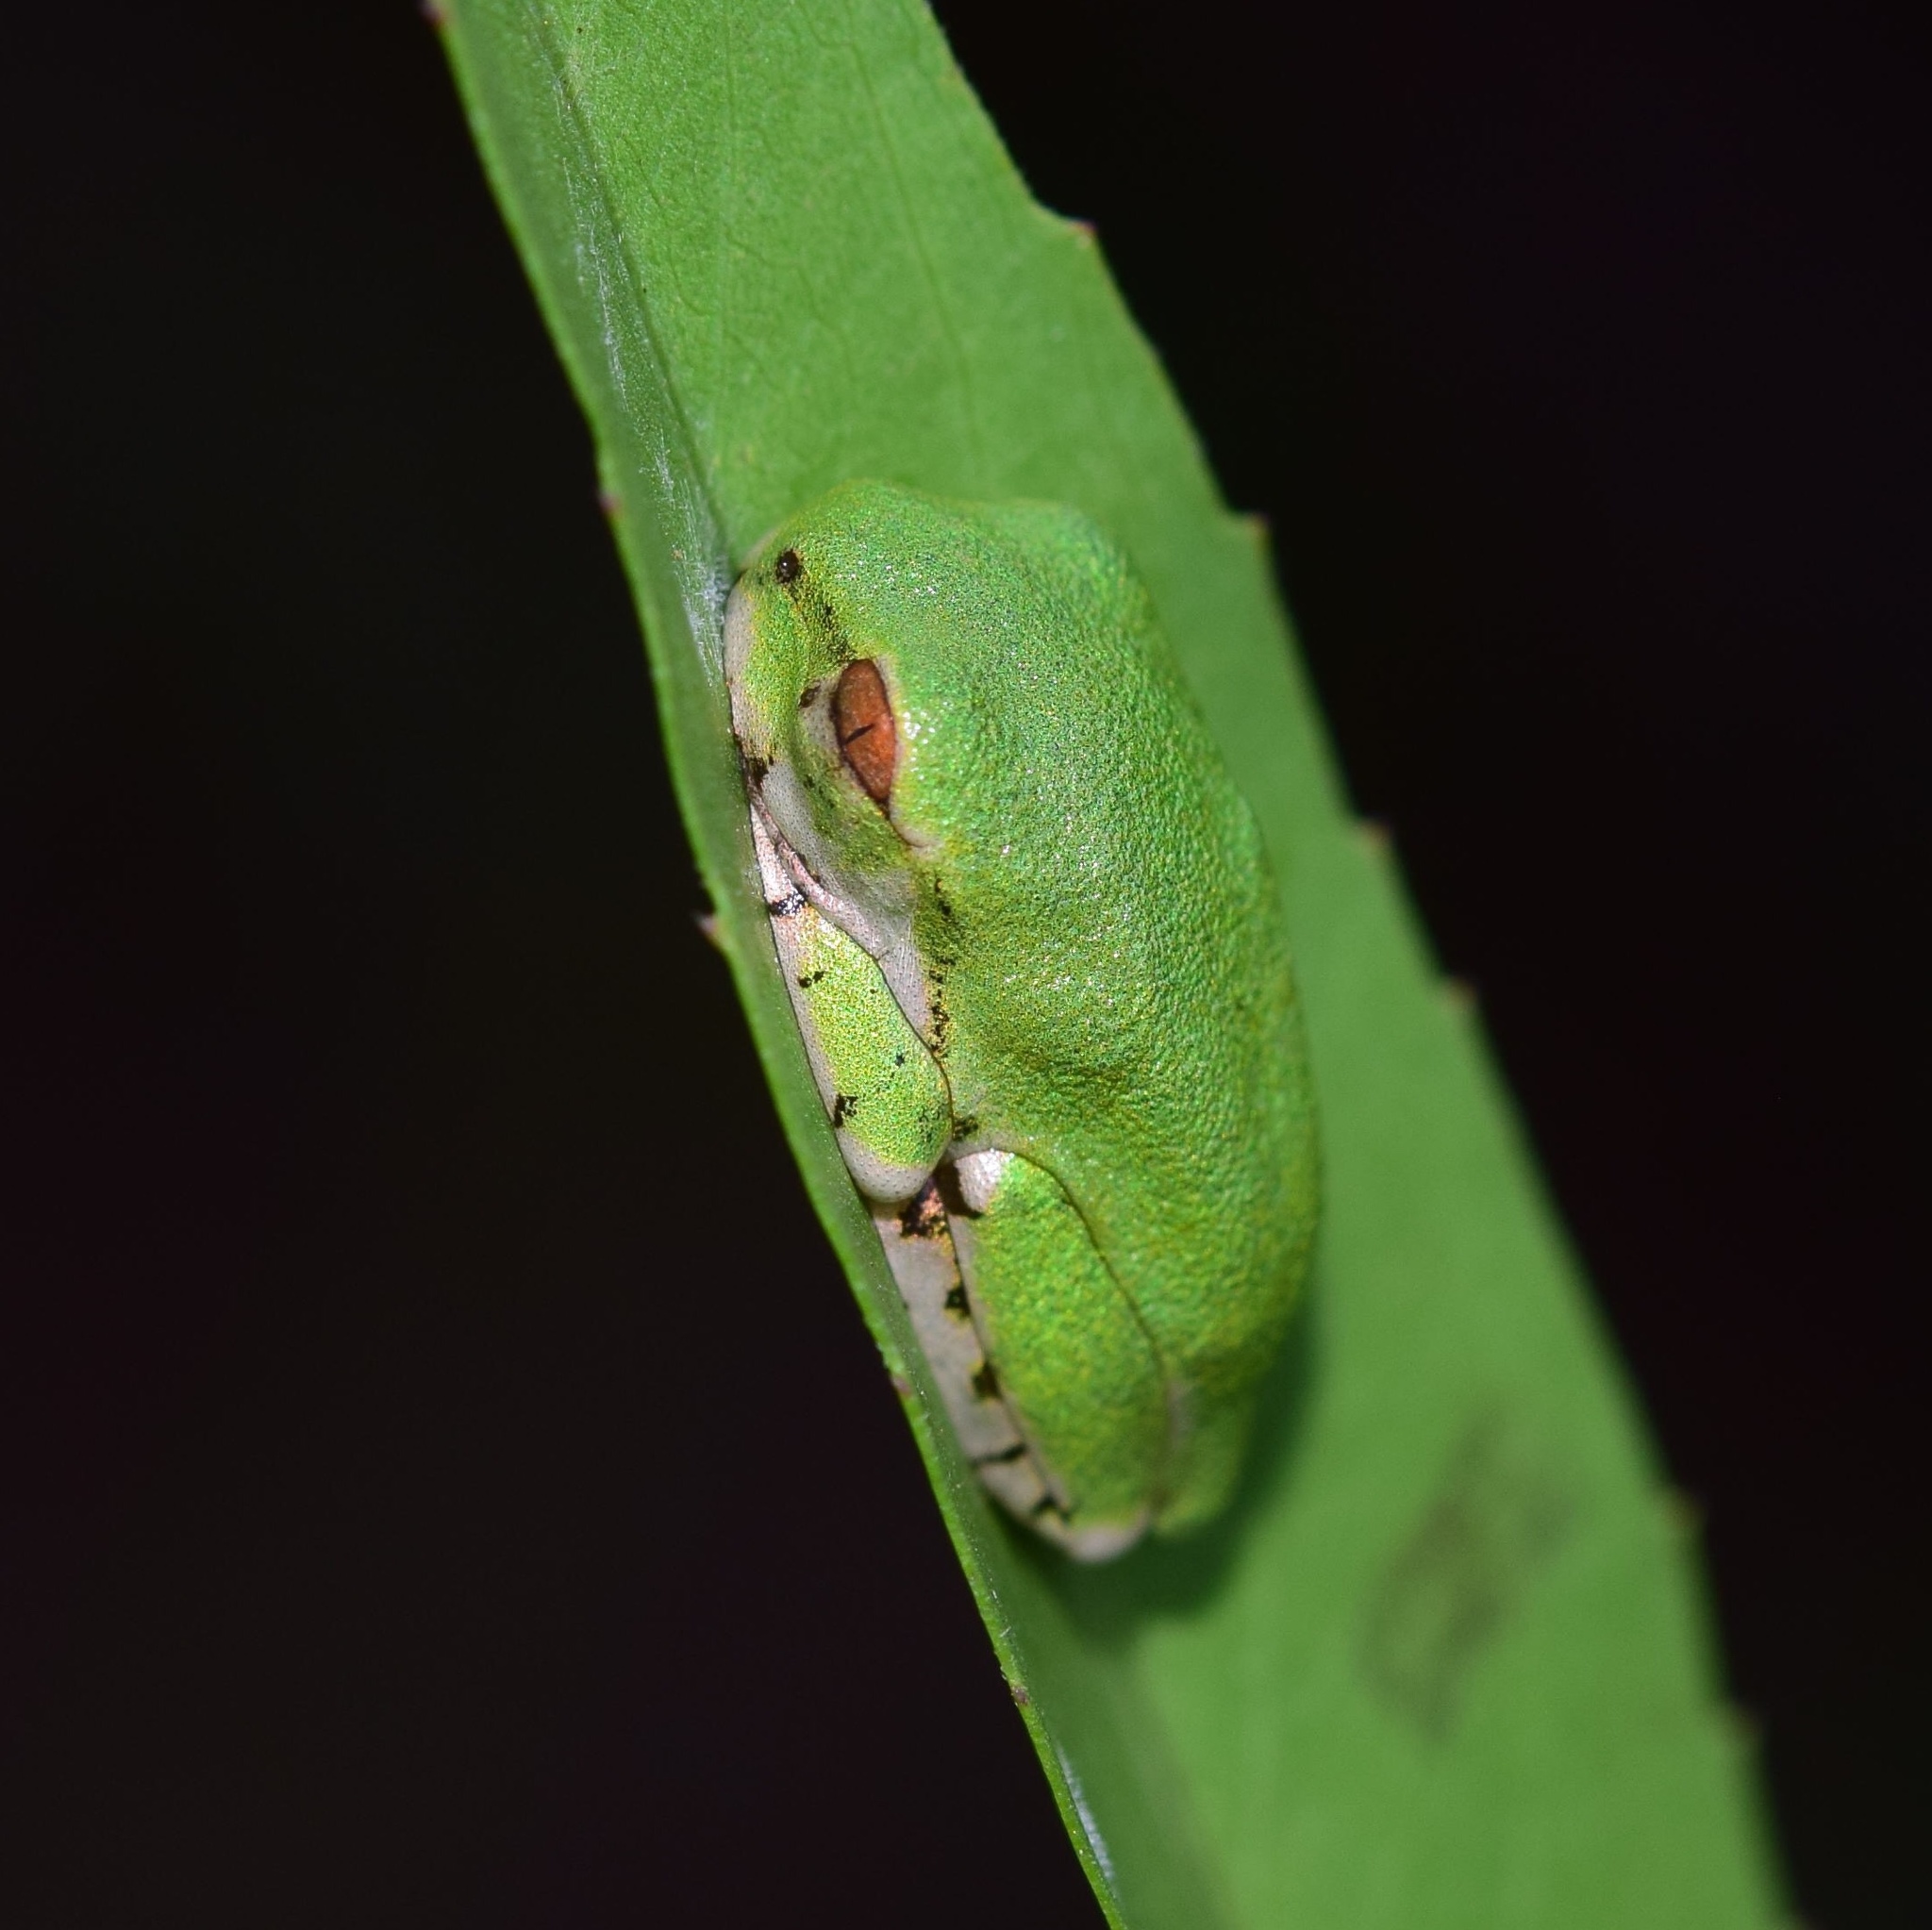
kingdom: Animalia
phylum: Chordata
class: Amphibia
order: Anura
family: Arthroleptidae
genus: Leptopelis
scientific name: Leptopelis natalensis
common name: Natal tree frog
